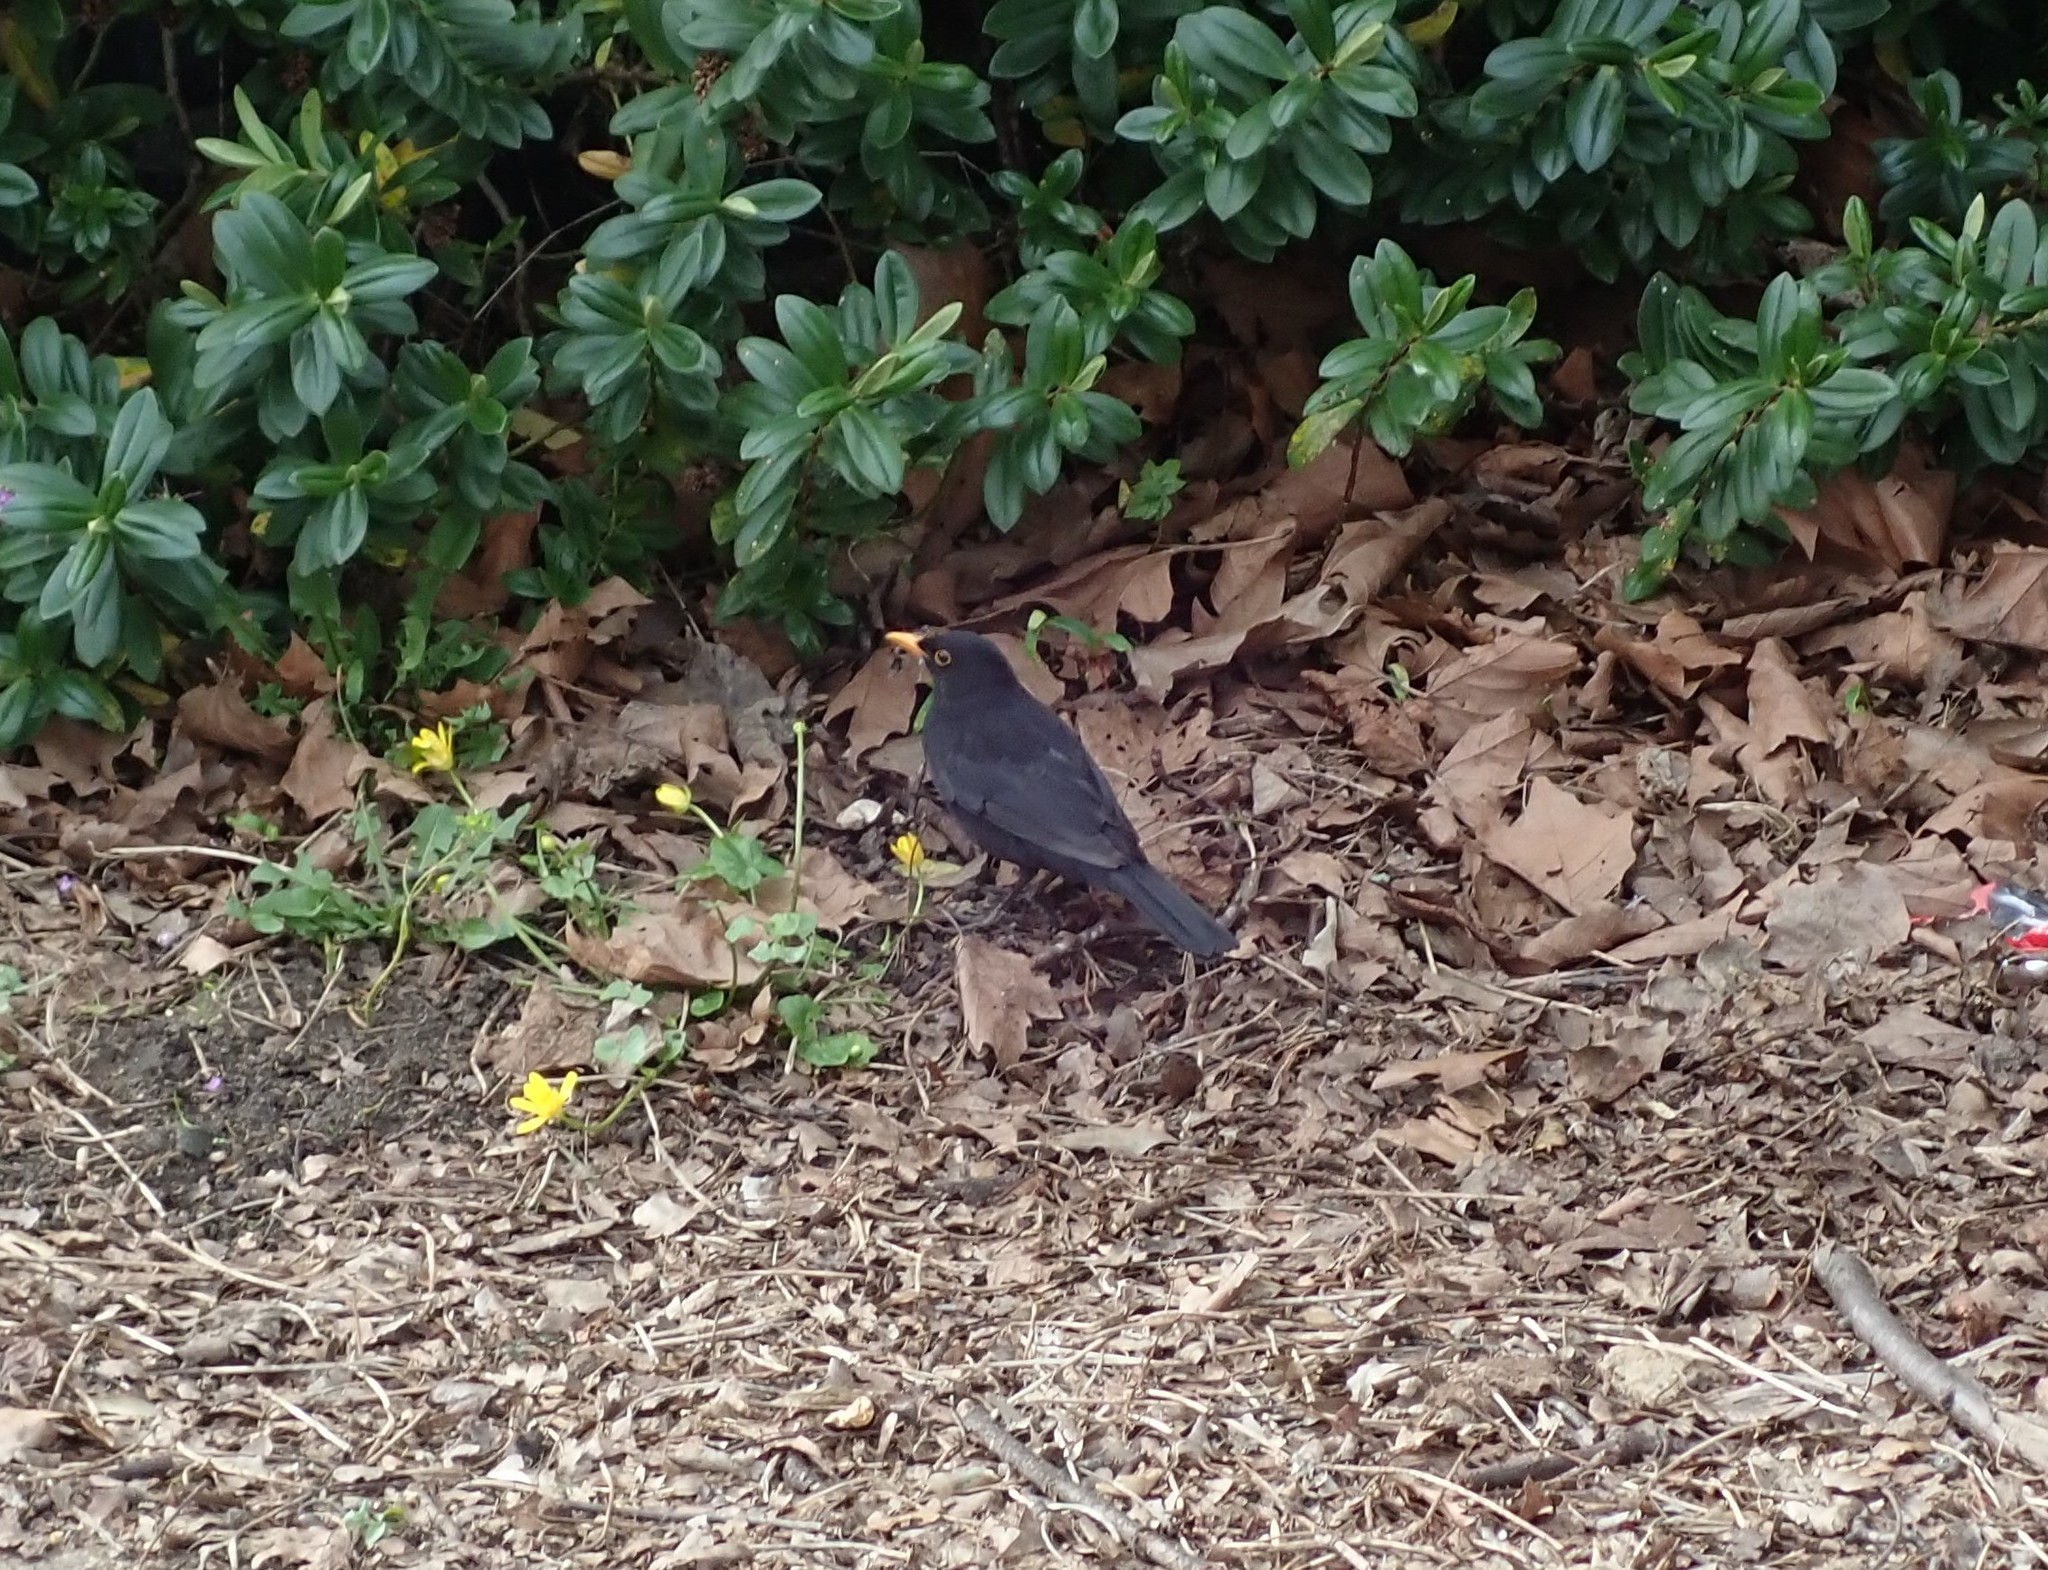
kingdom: Animalia
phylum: Chordata
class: Aves
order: Passeriformes
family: Turdidae
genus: Turdus
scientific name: Turdus merula
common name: Common blackbird
